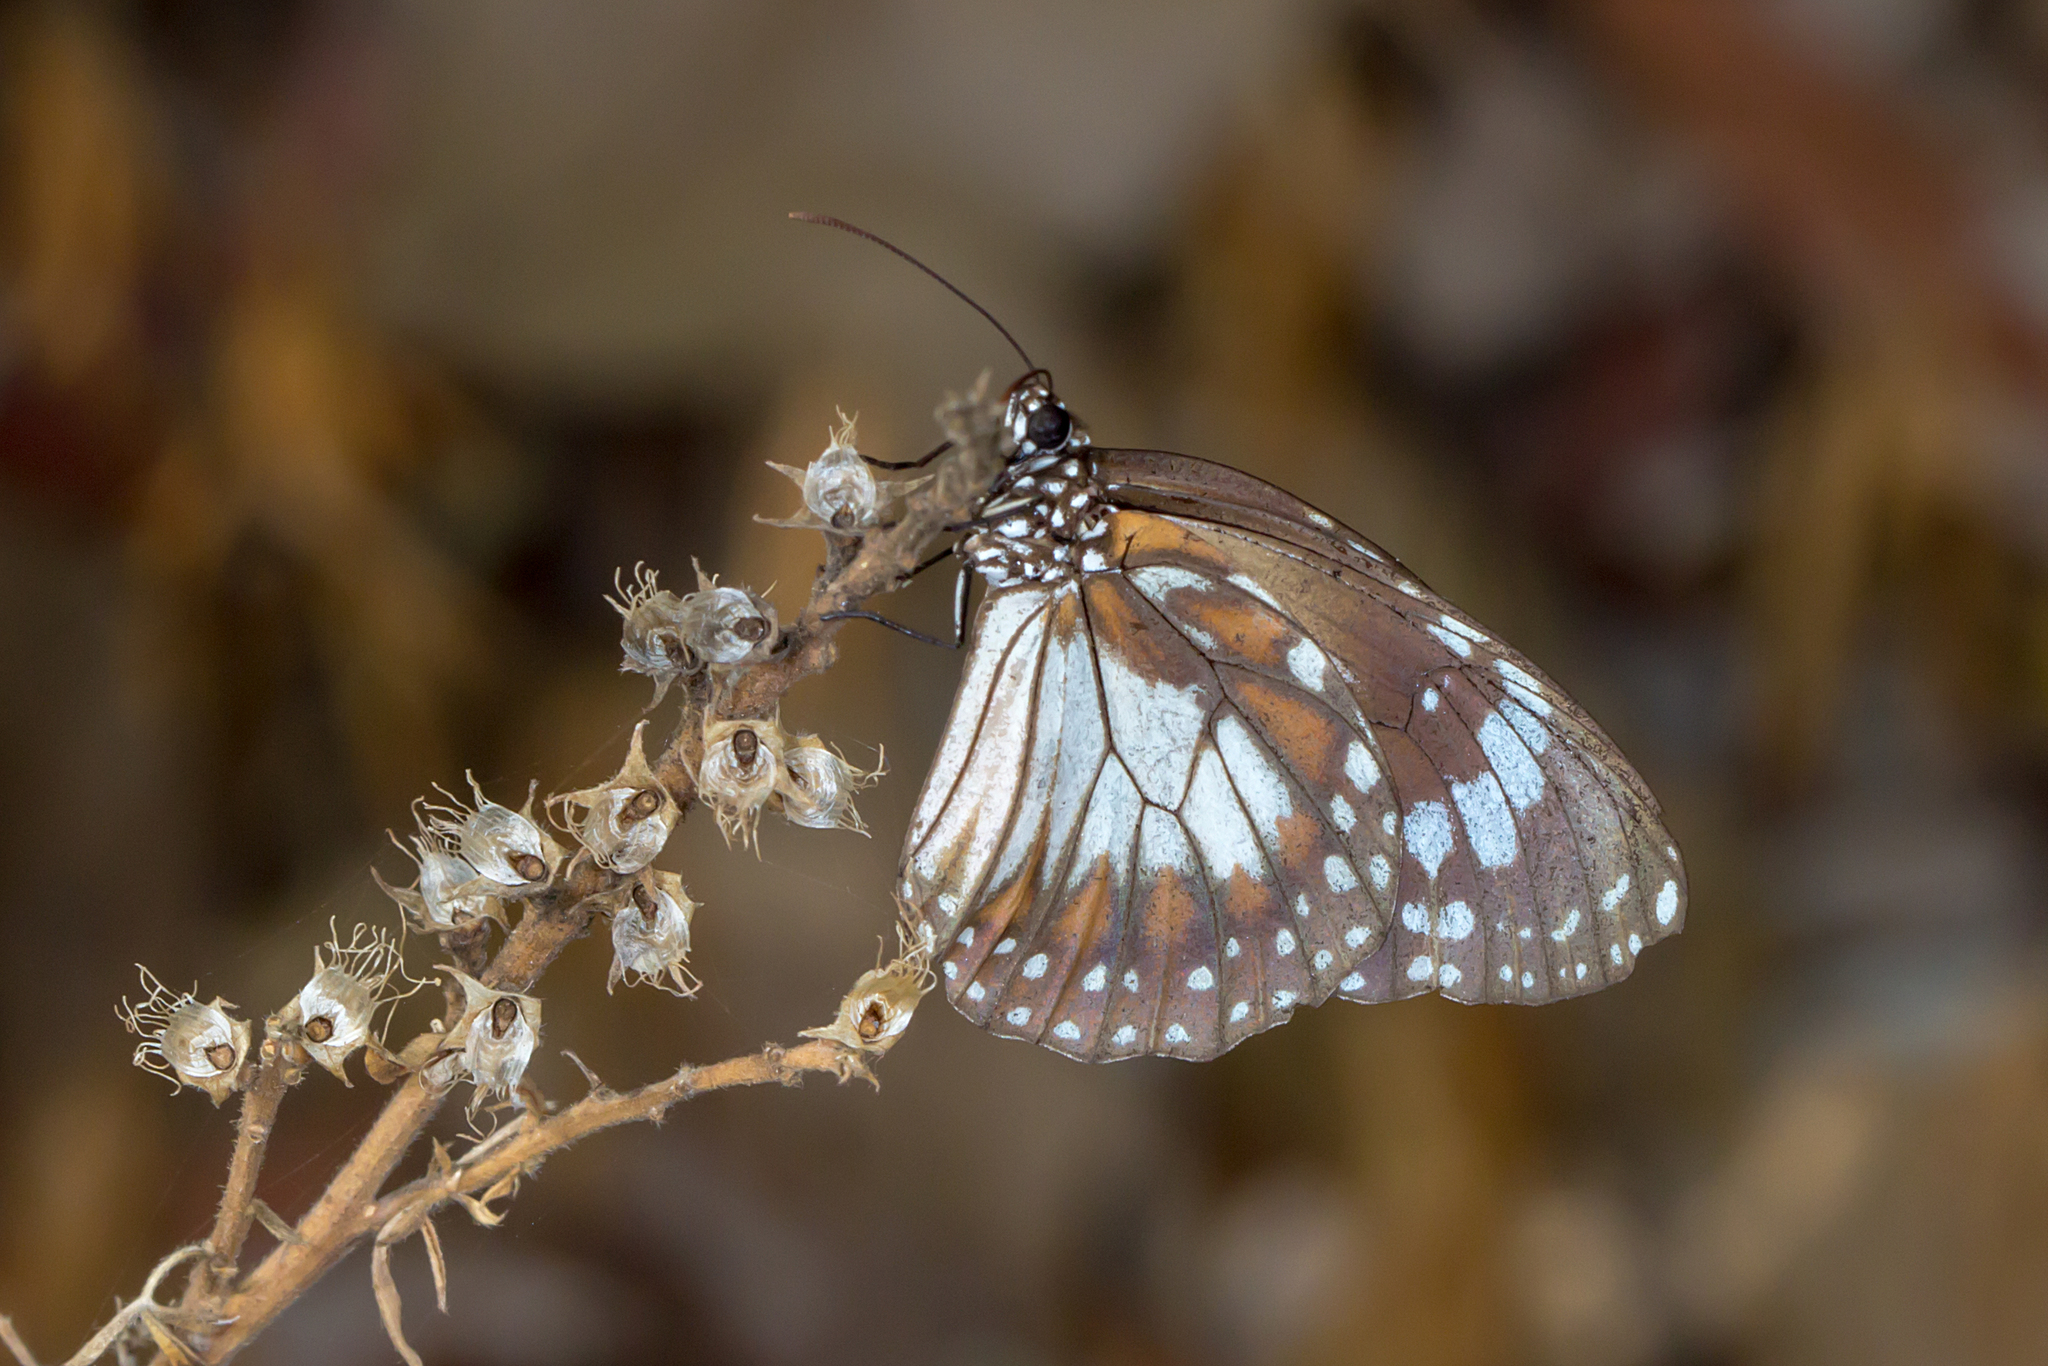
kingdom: Animalia
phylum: Arthropoda
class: Insecta
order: Lepidoptera
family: Nymphalidae
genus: Danaus
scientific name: Danaus affinis
